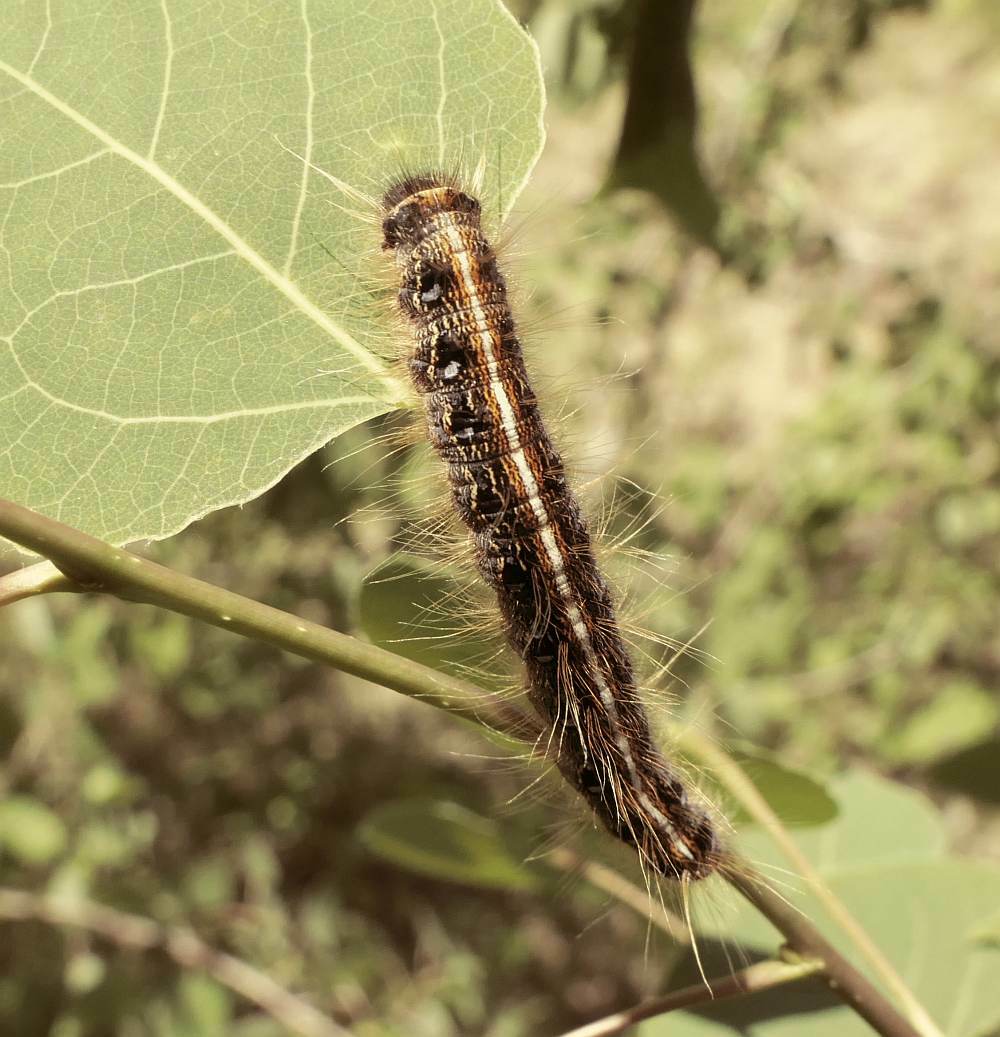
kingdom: Animalia
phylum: Arthropoda
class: Insecta
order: Lepidoptera
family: Lasiocampidae
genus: Malacosoma
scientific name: Malacosoma americana
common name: Eastern tent caterpillar moth
